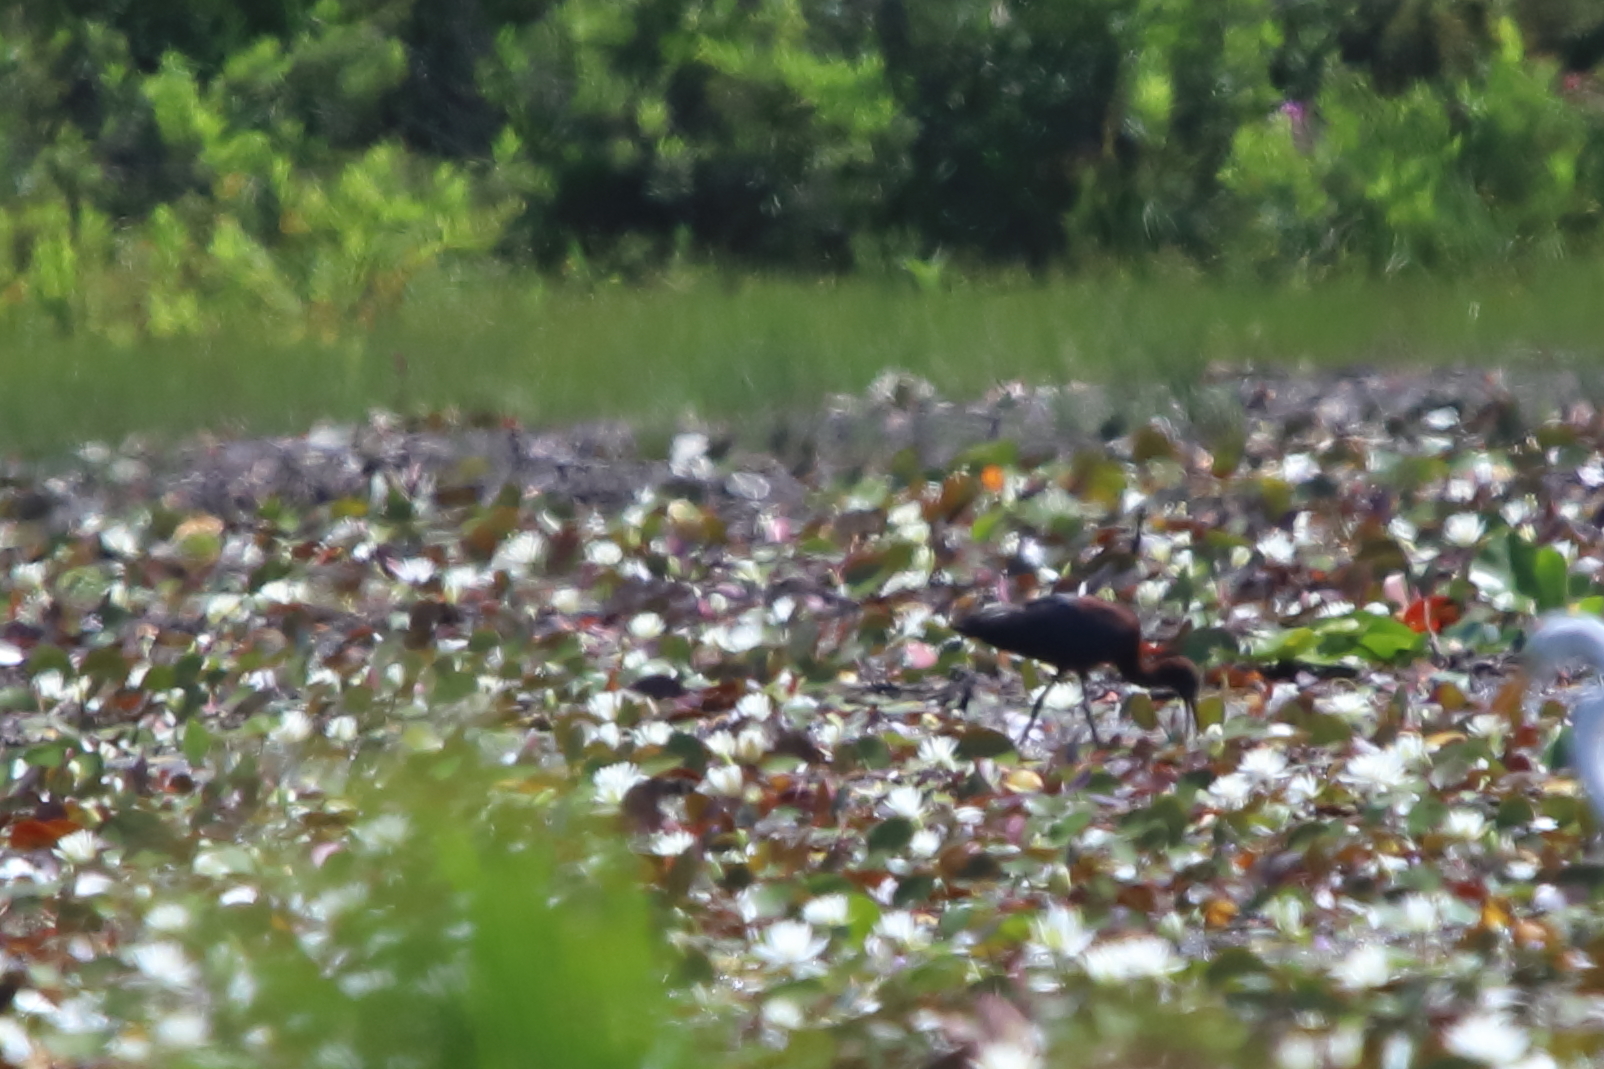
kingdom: Animalia
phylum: Chordata
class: Aves
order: Pelecaniformes
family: Threskiornithidae
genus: Plegadis
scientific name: Plegadis falcinellus
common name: Glossy ibis
